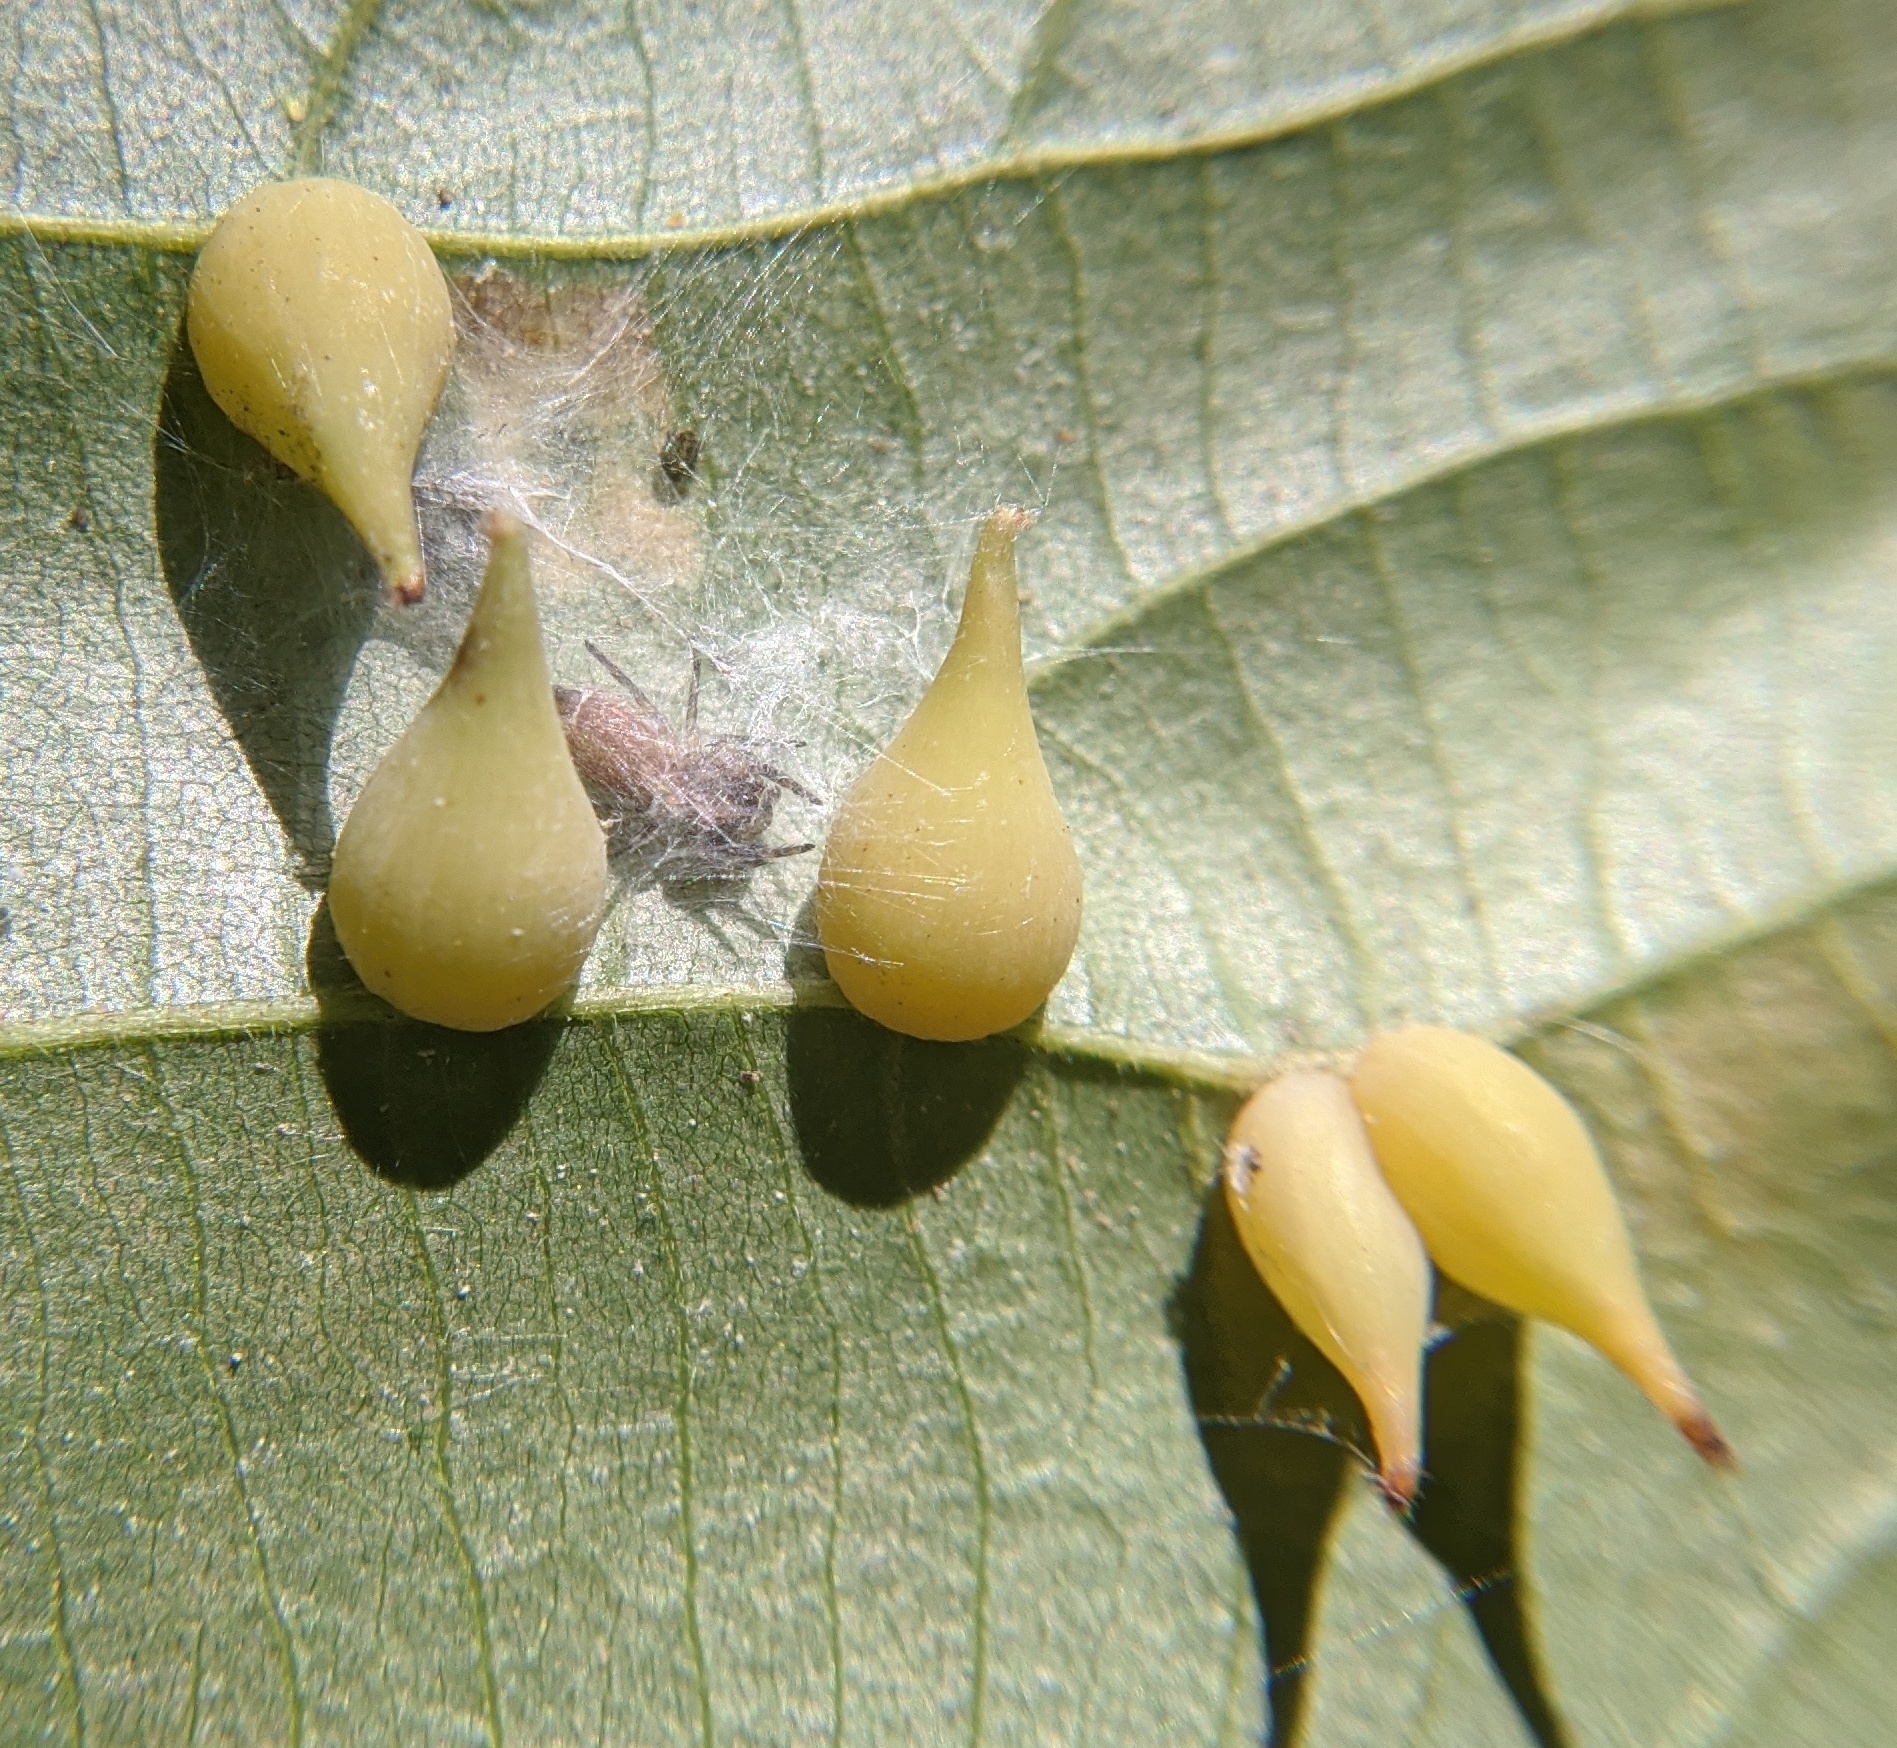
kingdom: Animalia
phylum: Arthropoda
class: Insecta
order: Diptera
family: Cecidomyiidae
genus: Caryomyia
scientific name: Caryomyia caryaecola
